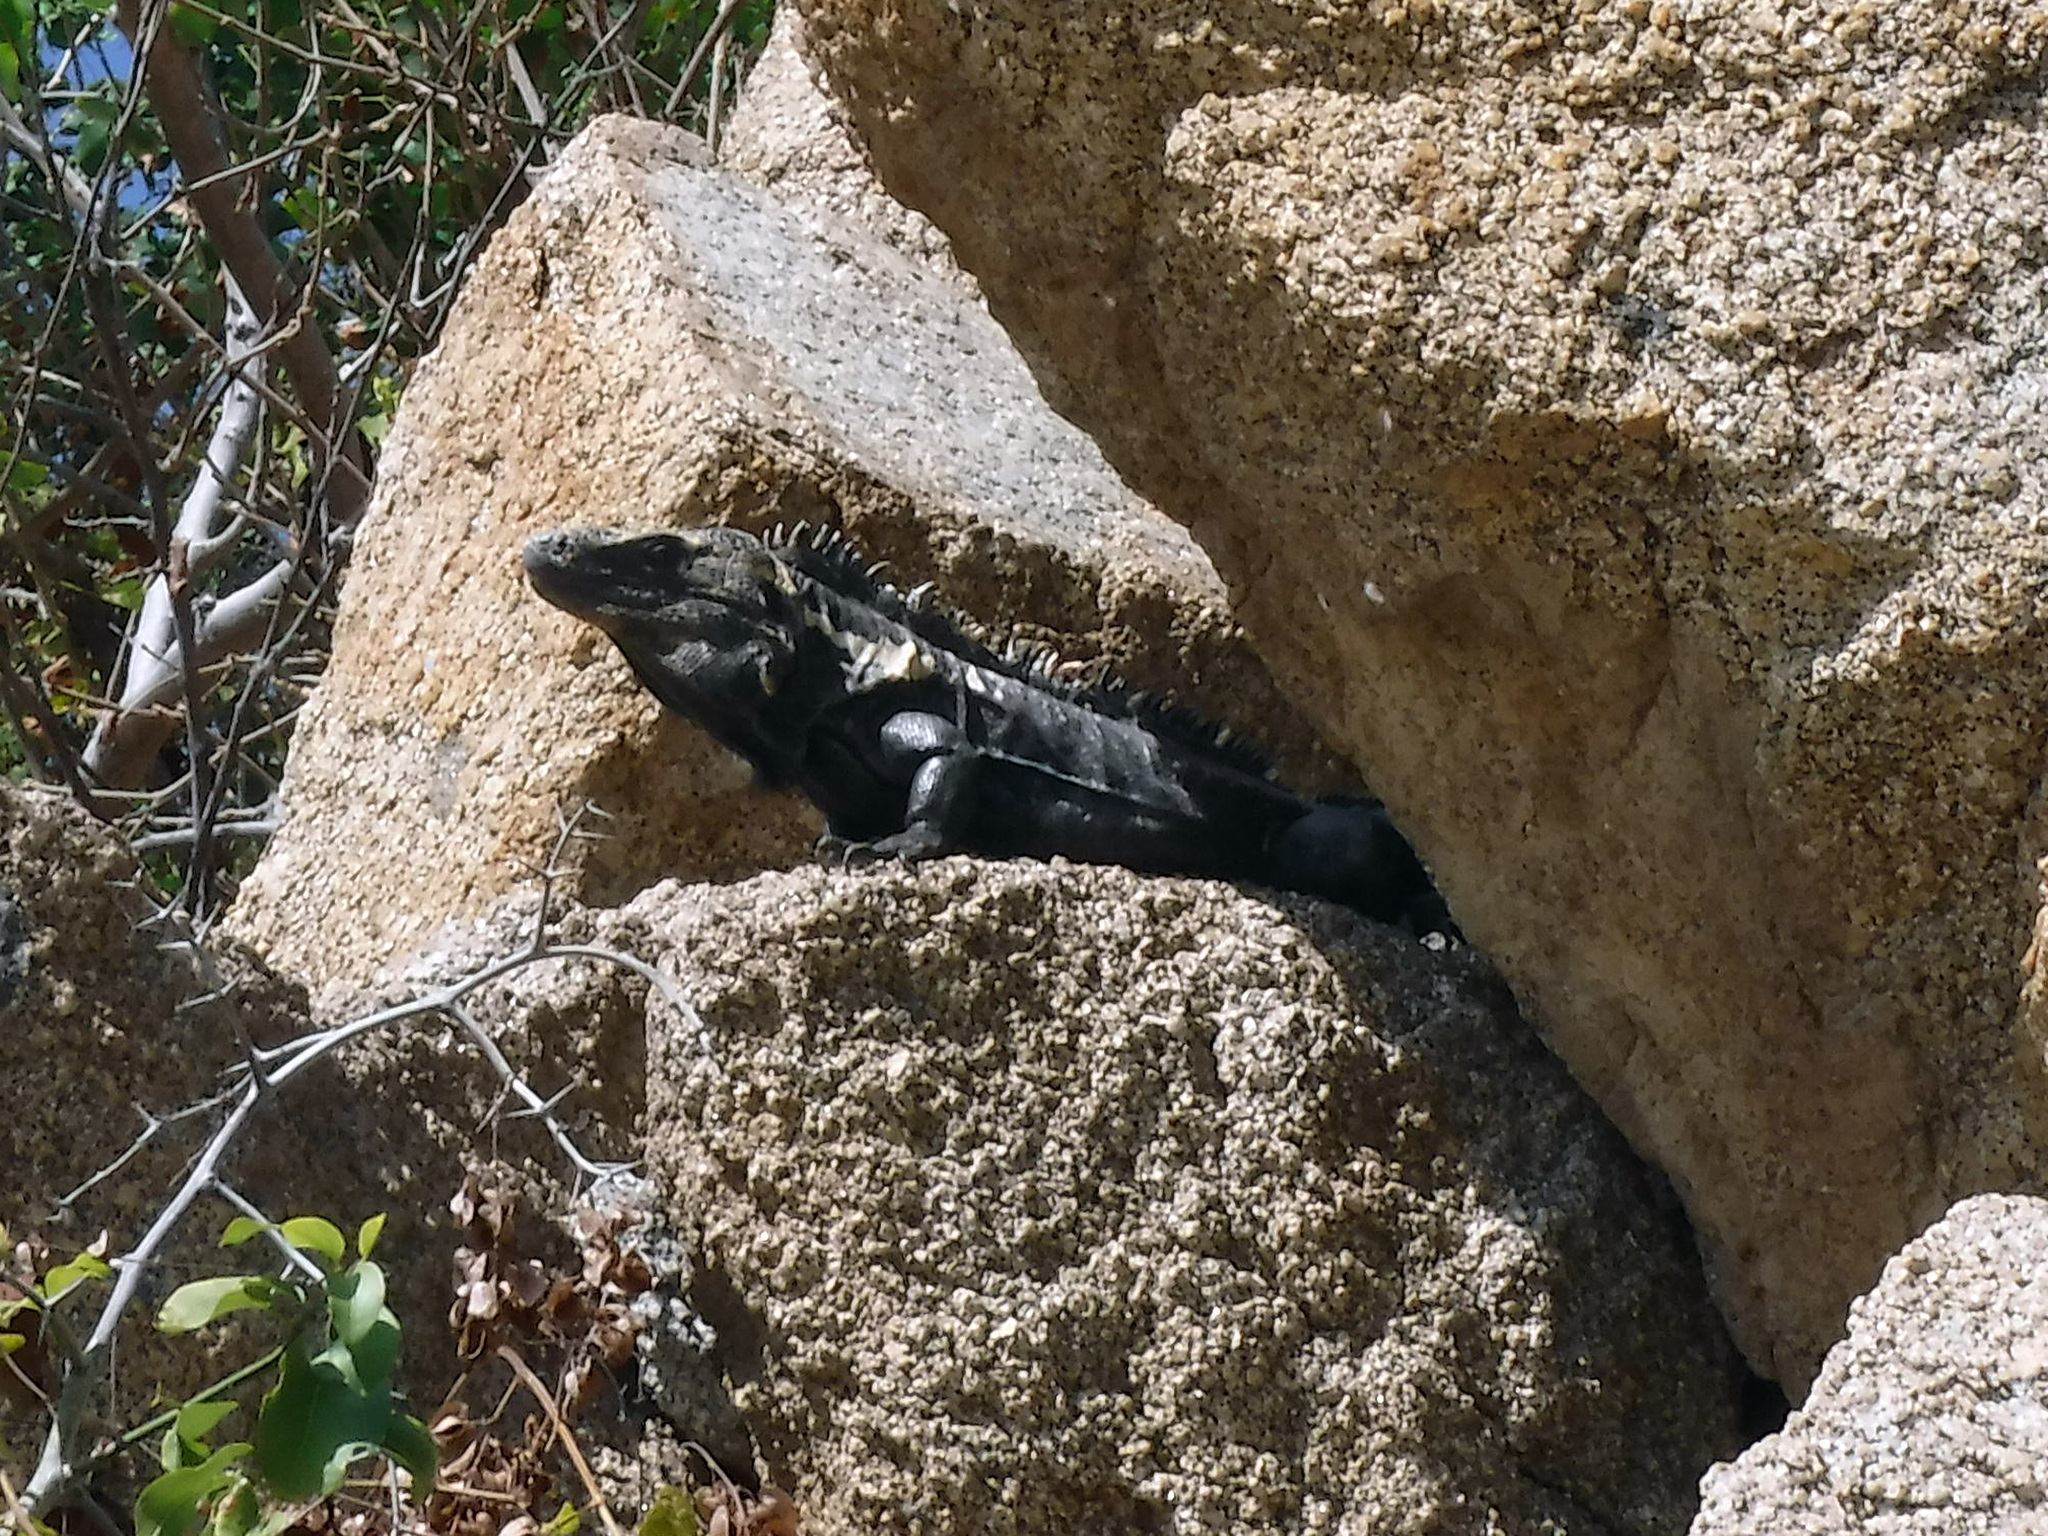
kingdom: Animalia
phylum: Chordata
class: Squamata
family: Iguanidae
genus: Ctenosaura
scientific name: Ctenosaura pectinata
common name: Guerreran spiny-tailed iguana
